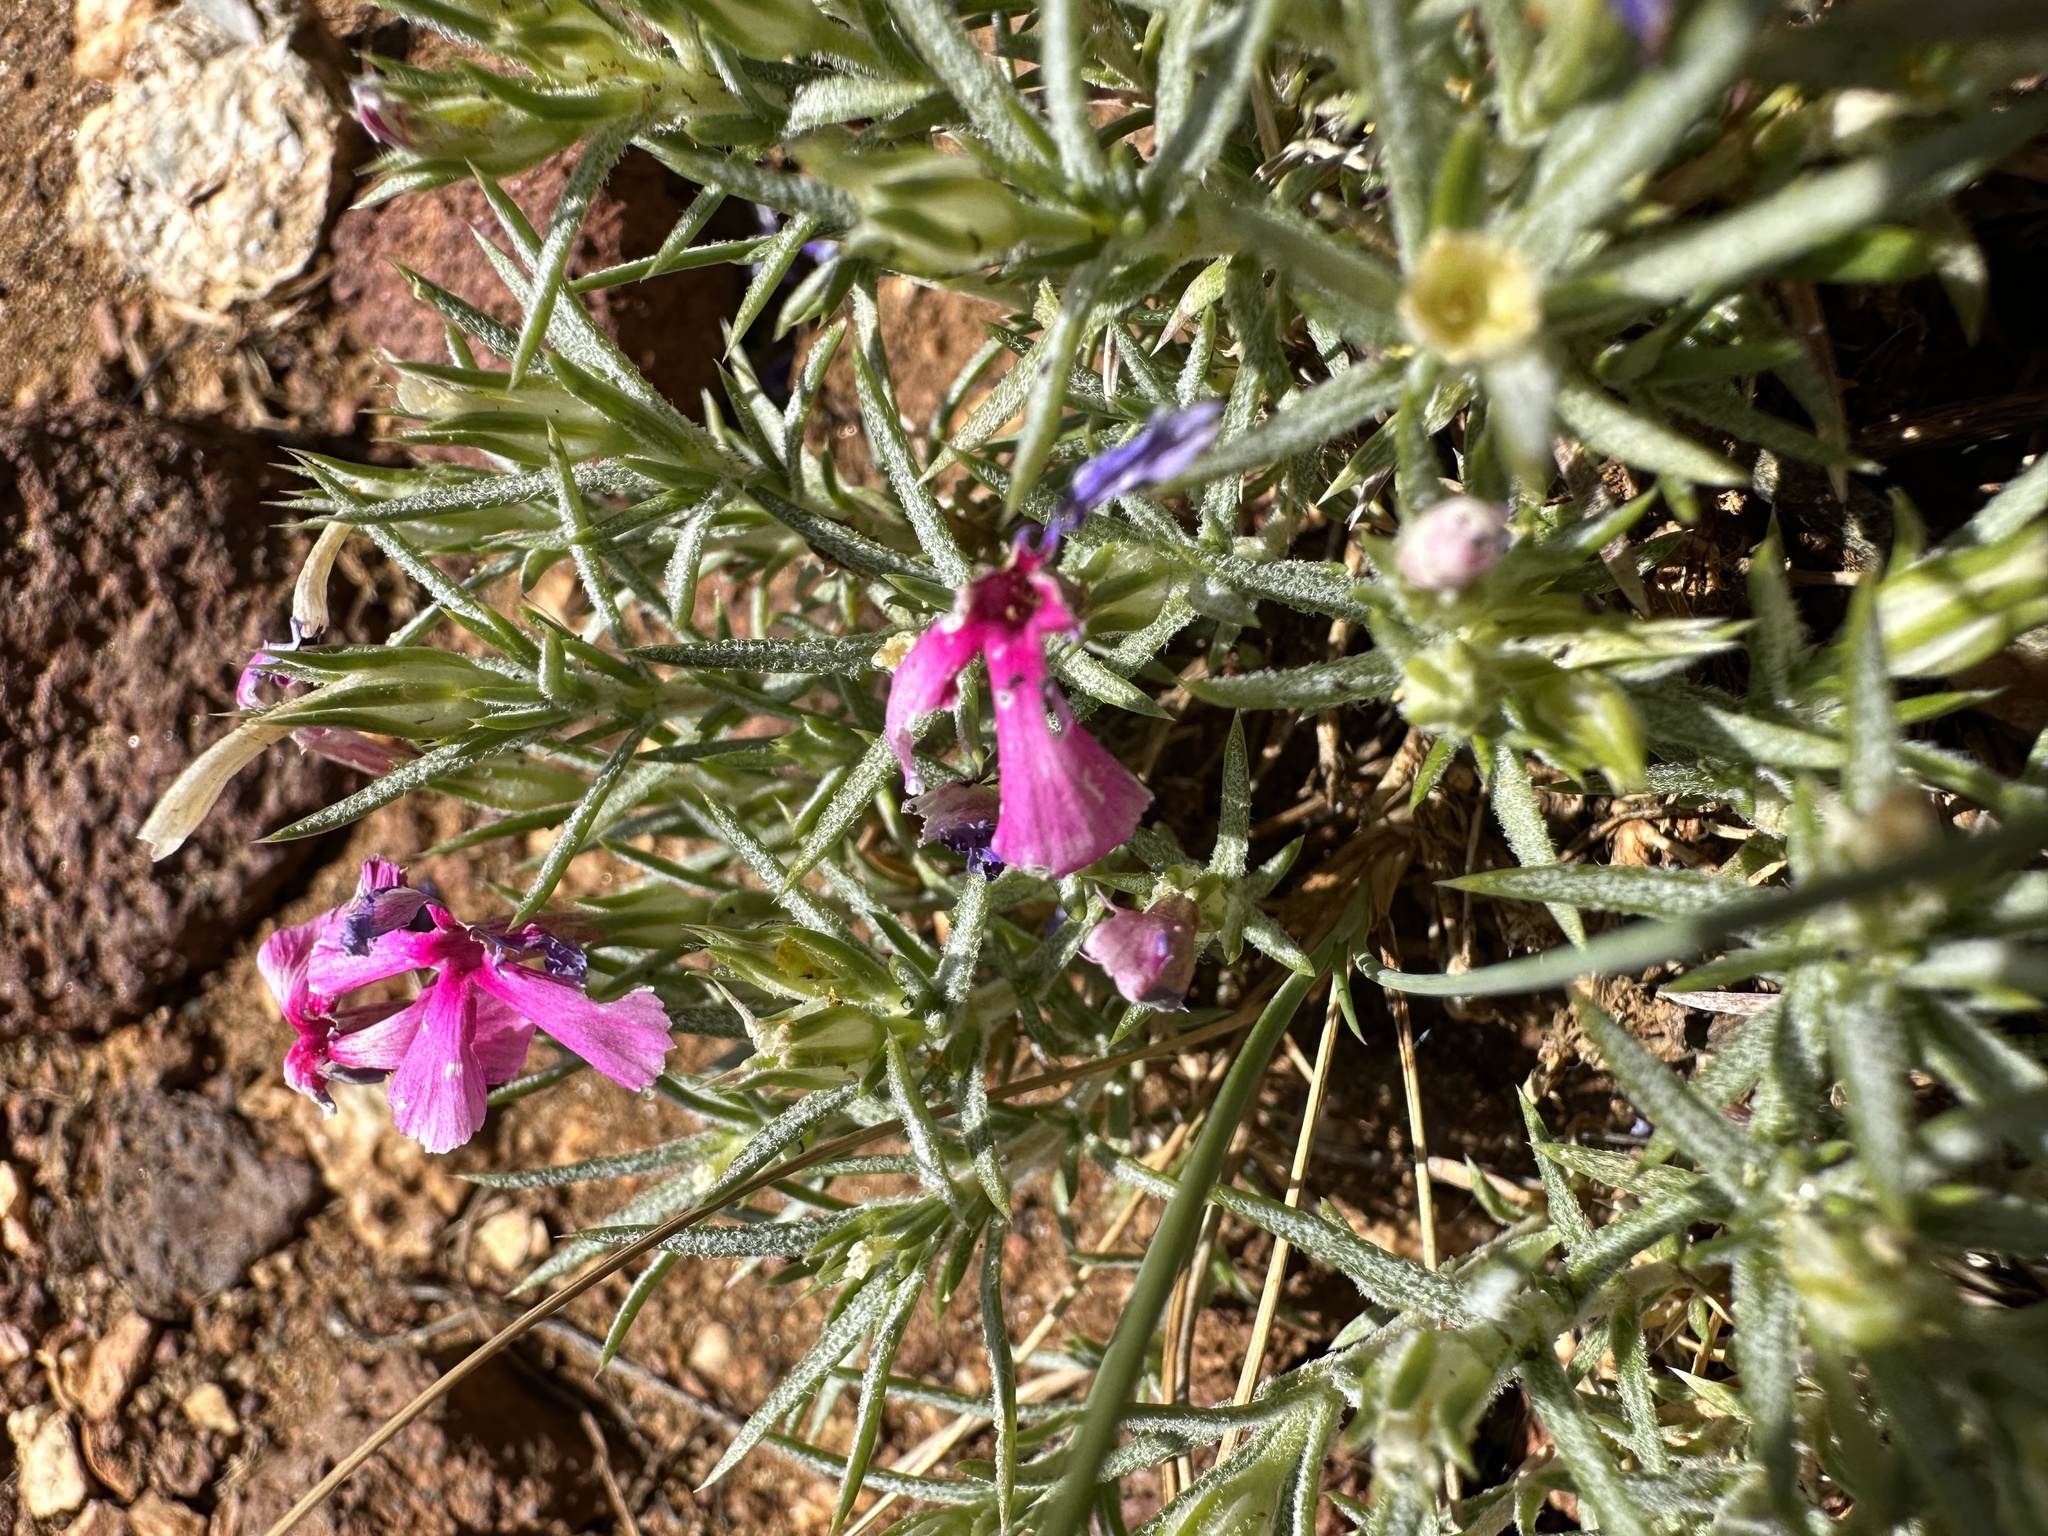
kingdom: Plantae
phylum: Tracheophyta
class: Magnoliopsida
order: Ericales
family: Polemoniaceae
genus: Phlox
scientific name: Phlox austromontana
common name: Desert phlox
